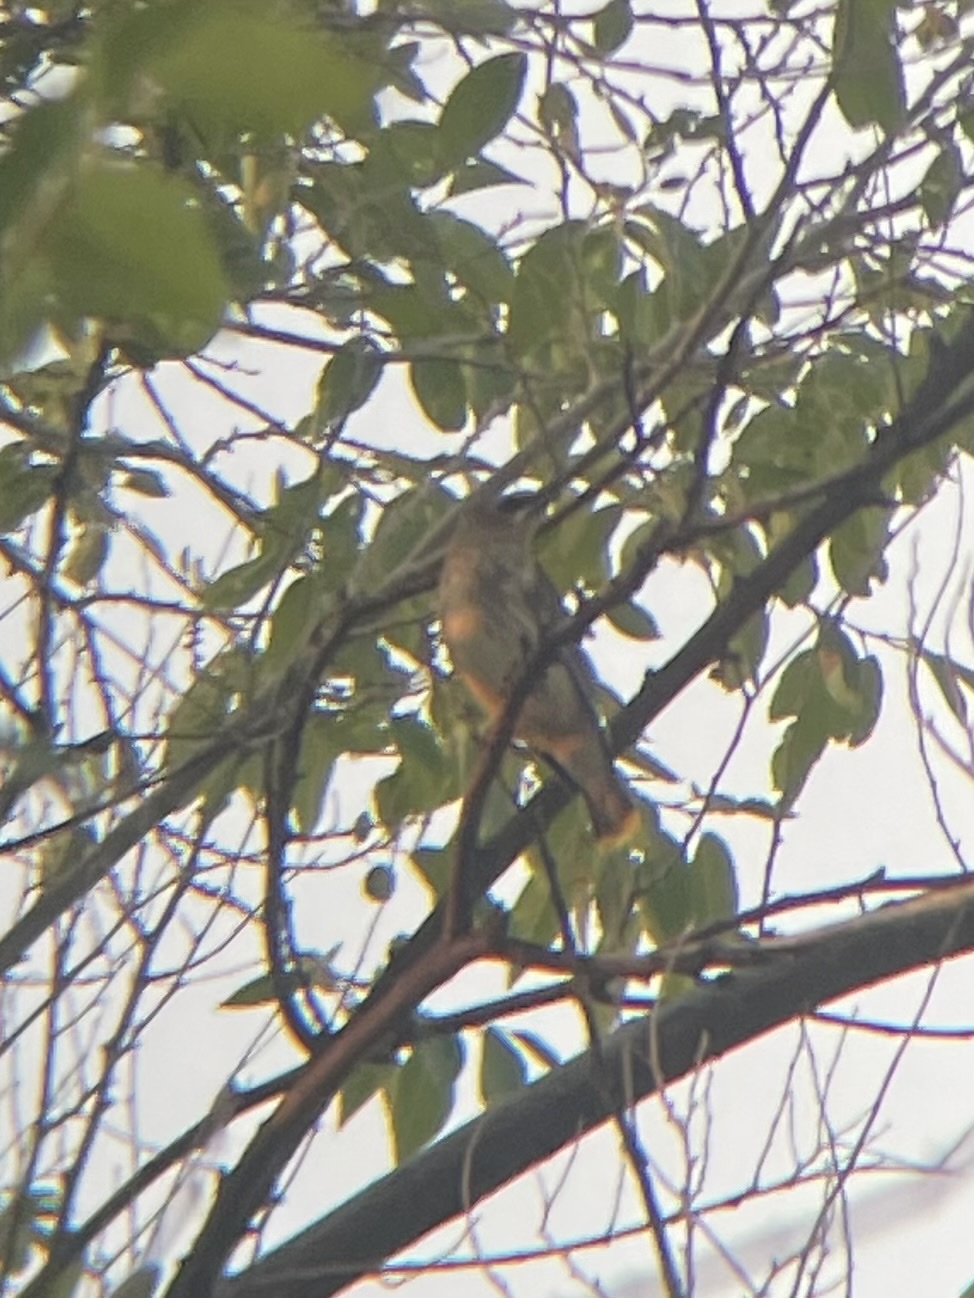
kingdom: Animalia
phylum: Chordata
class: Aves
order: Passeriformes
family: Bombycillidae
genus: Bombycilla
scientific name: Bombycilla cedrorum
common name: Cedar waxwing
